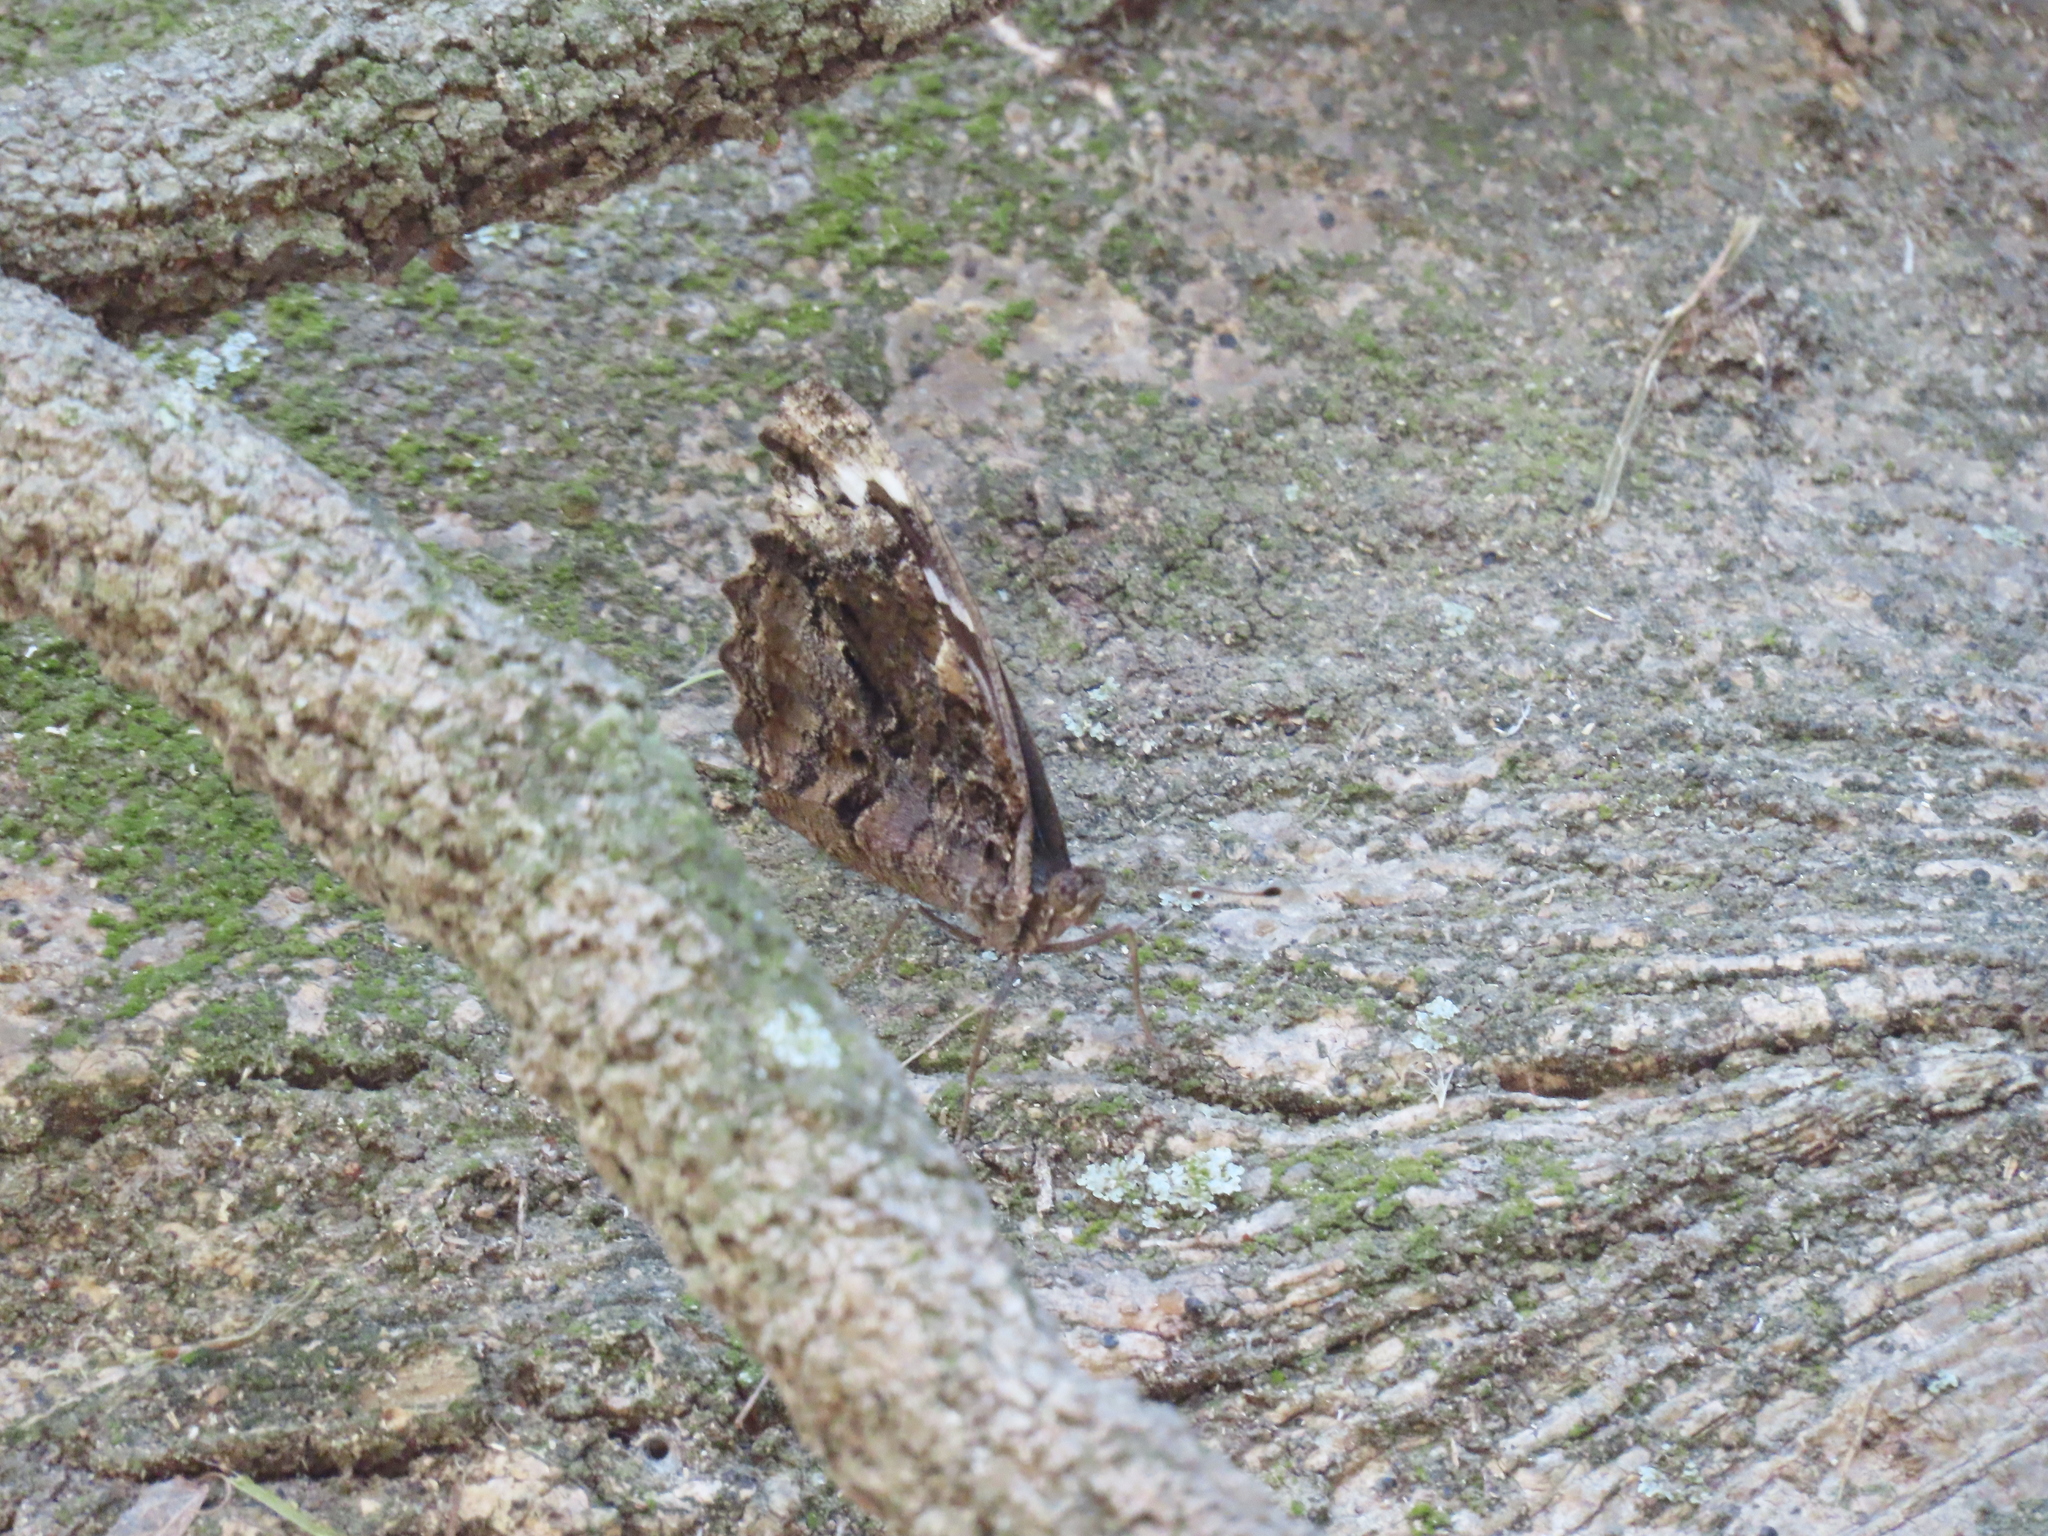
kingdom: Animalia
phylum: Arthropoda
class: Insecta
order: Lepidoptera
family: Nymphalidae
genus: Myscelia
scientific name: Myscelia ethusa
